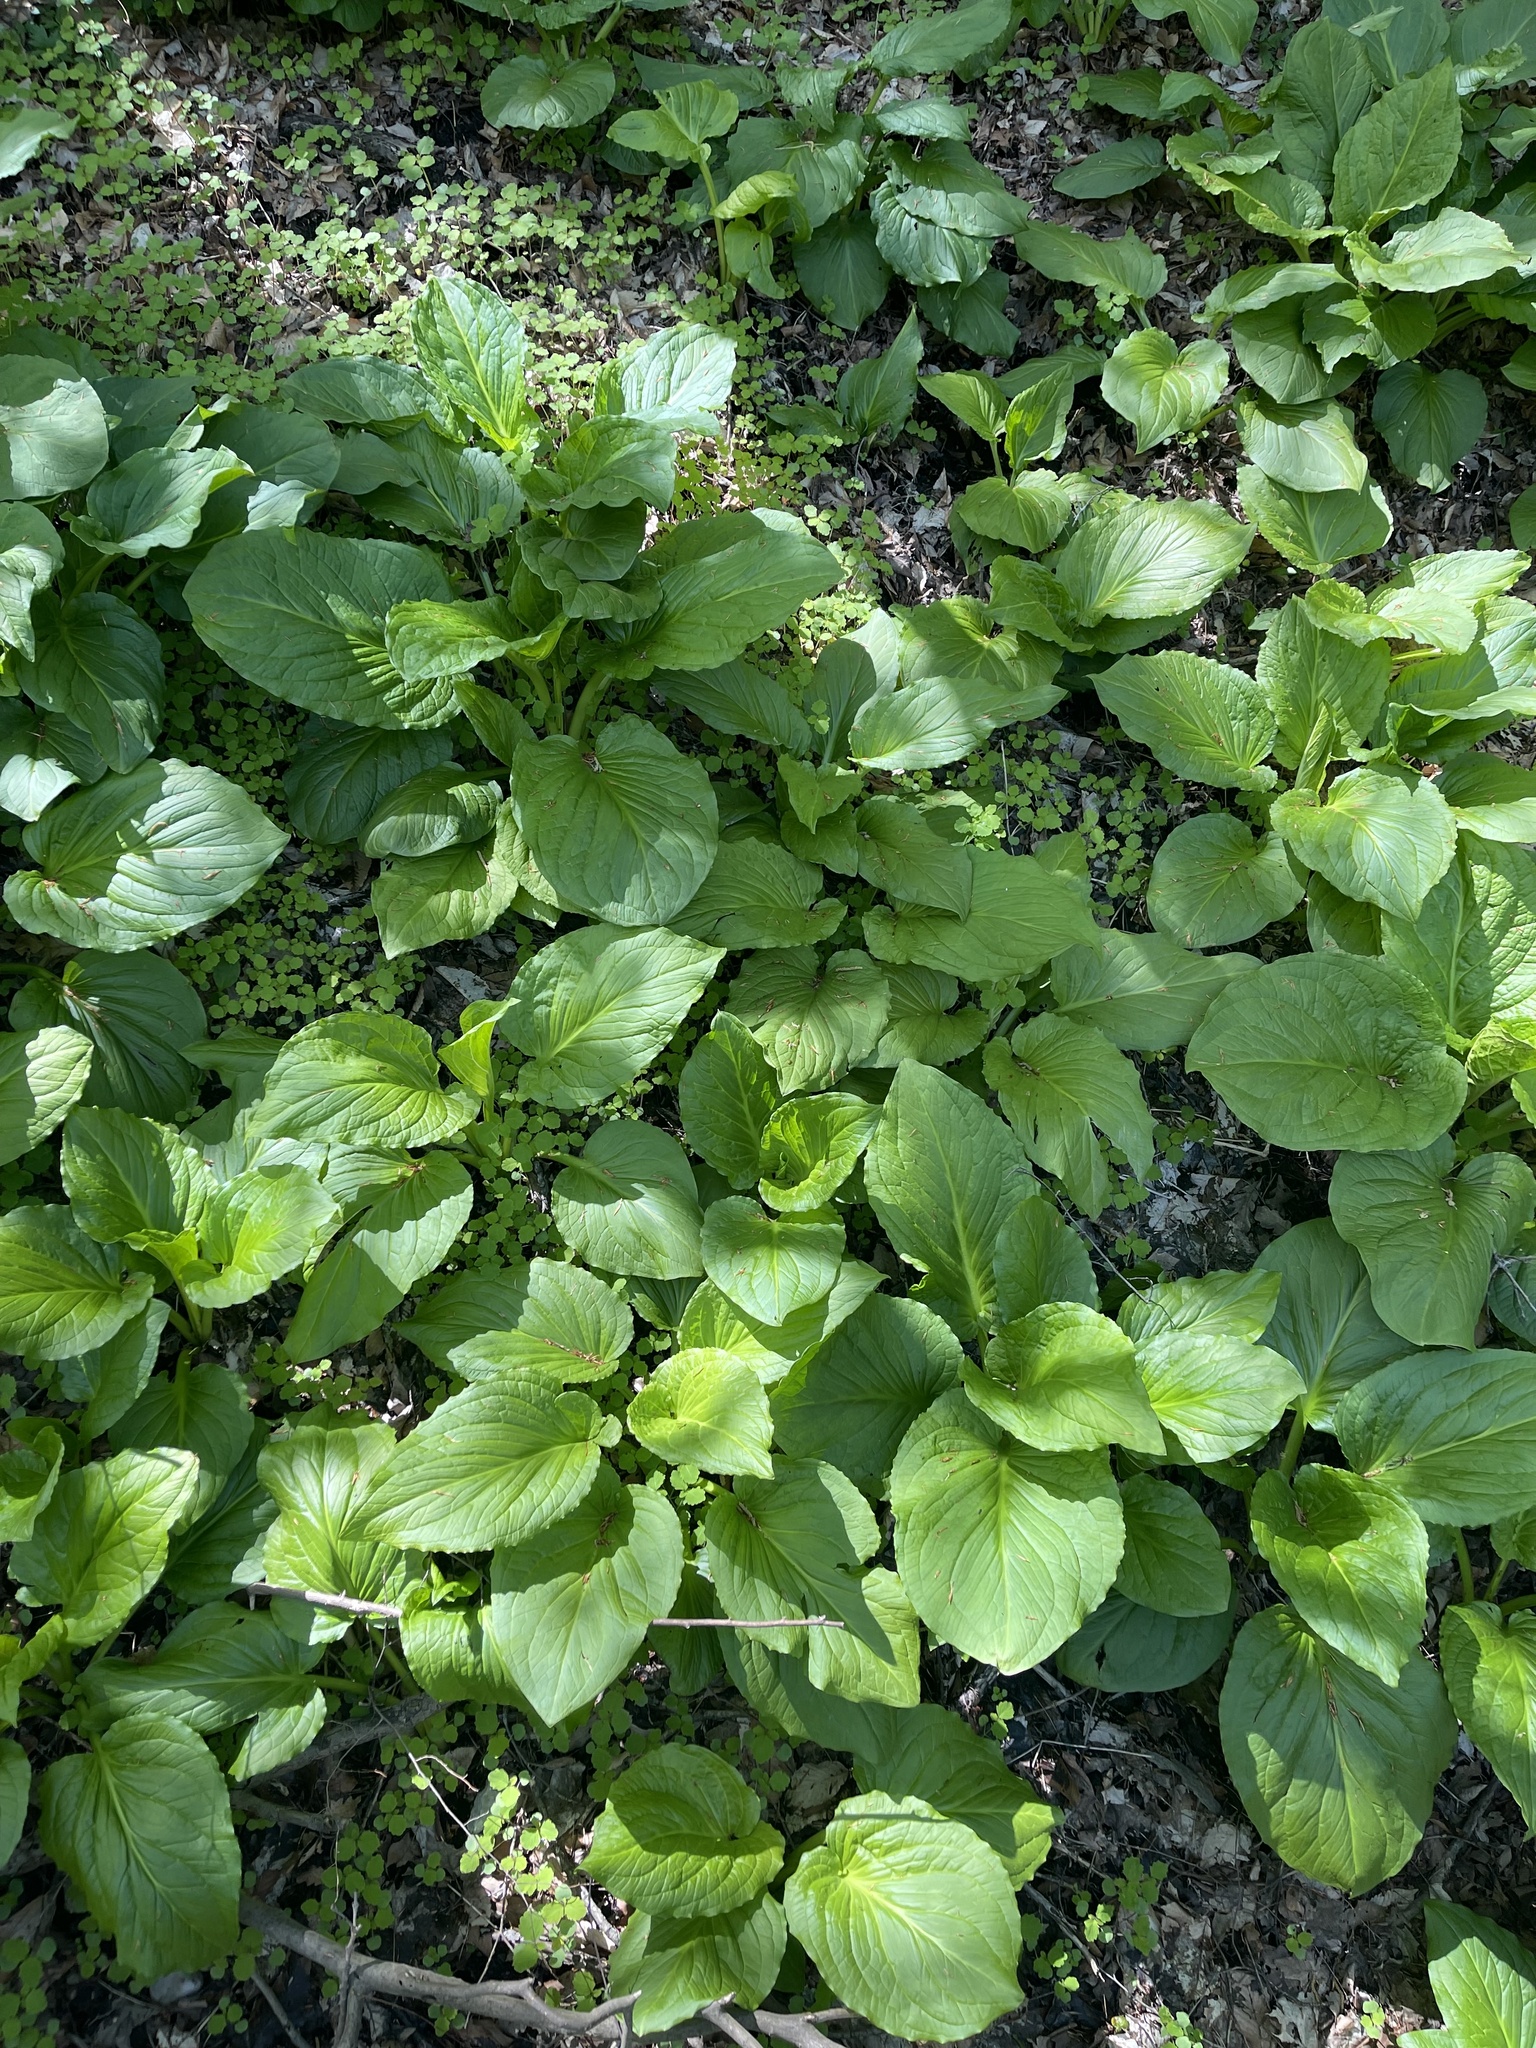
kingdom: Plantae
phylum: Tracheophyta
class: Liliopsida
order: Alismatales
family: Araceae
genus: Symplocarpus
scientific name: Symplocarpus foetidus
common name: Eastern skunk cabbage
